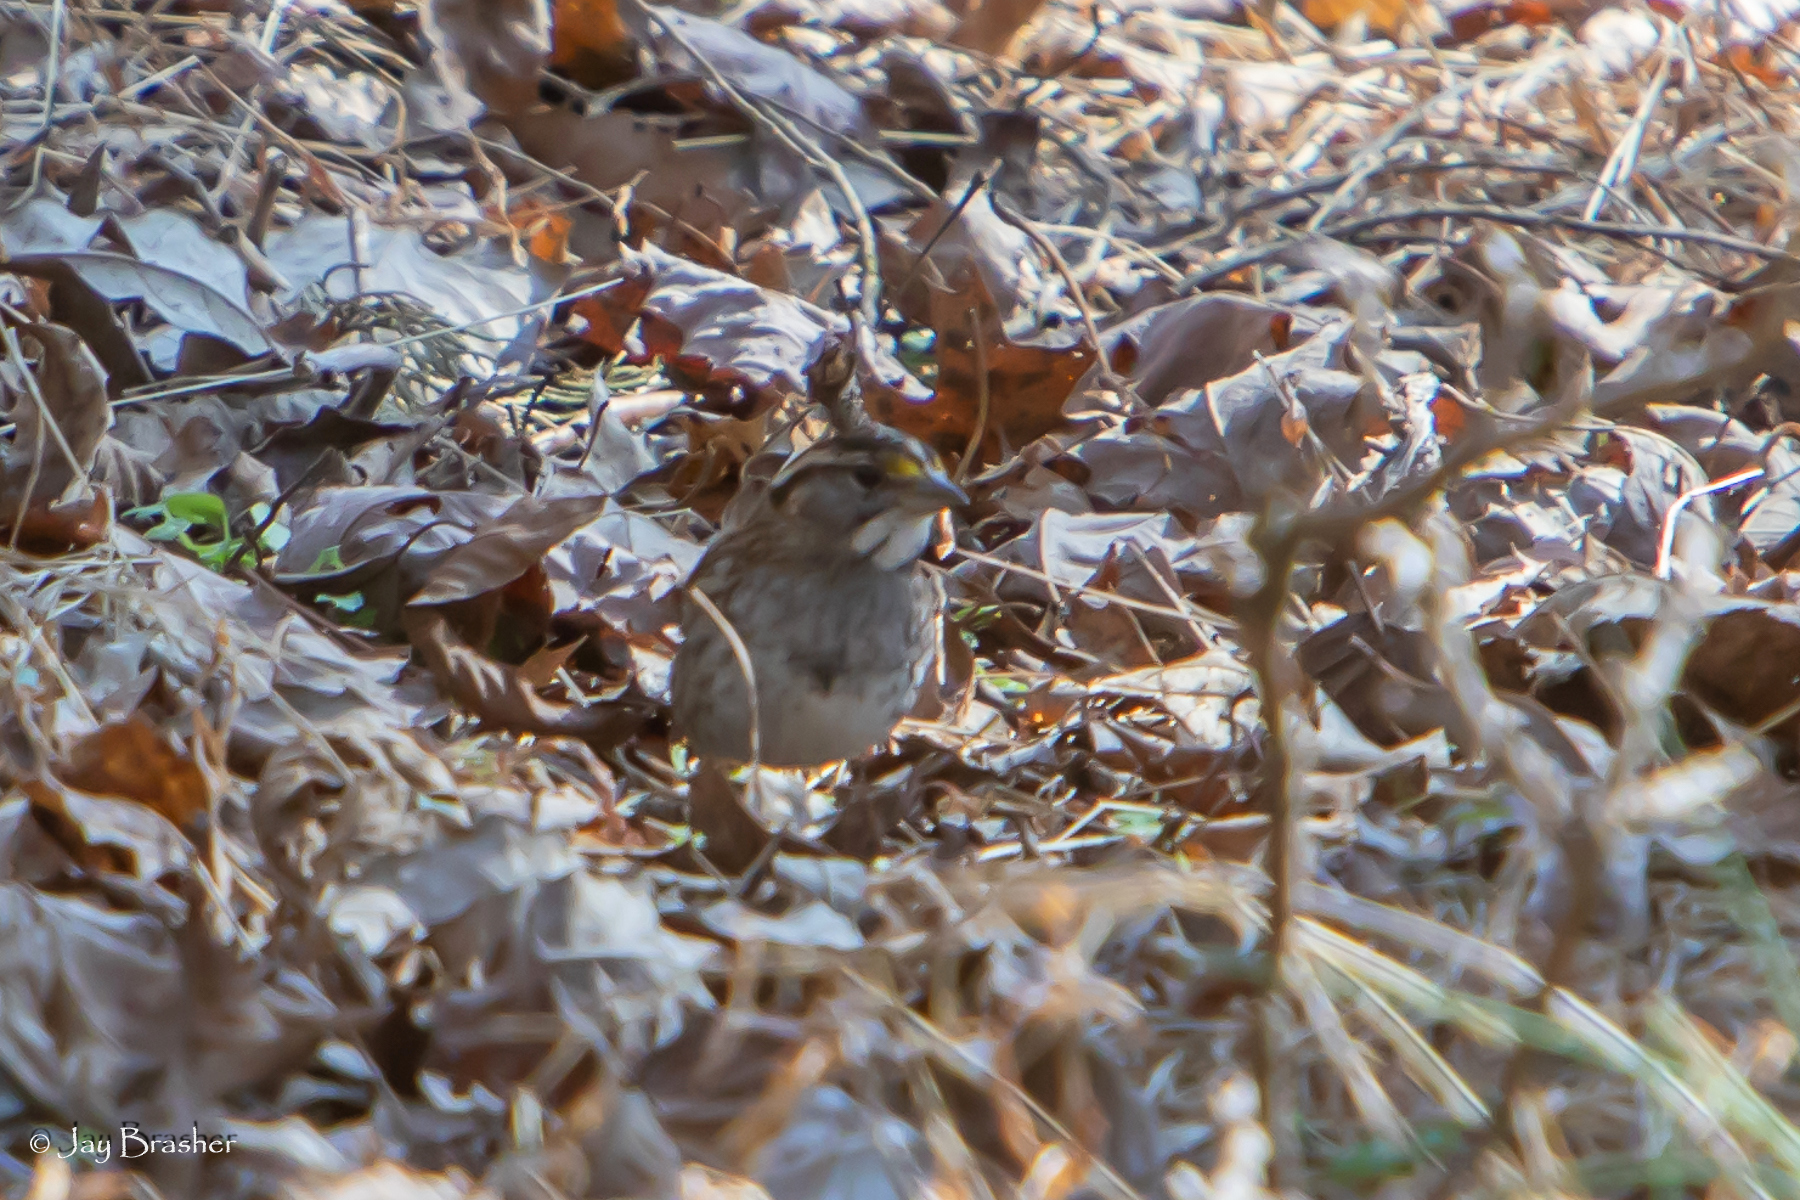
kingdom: Animalia
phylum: Chordata
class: Aves
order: Passeriformes
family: Passerellidae
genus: Zonotrichia
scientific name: Zonotrichia albicollis
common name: White-throated sparrow
